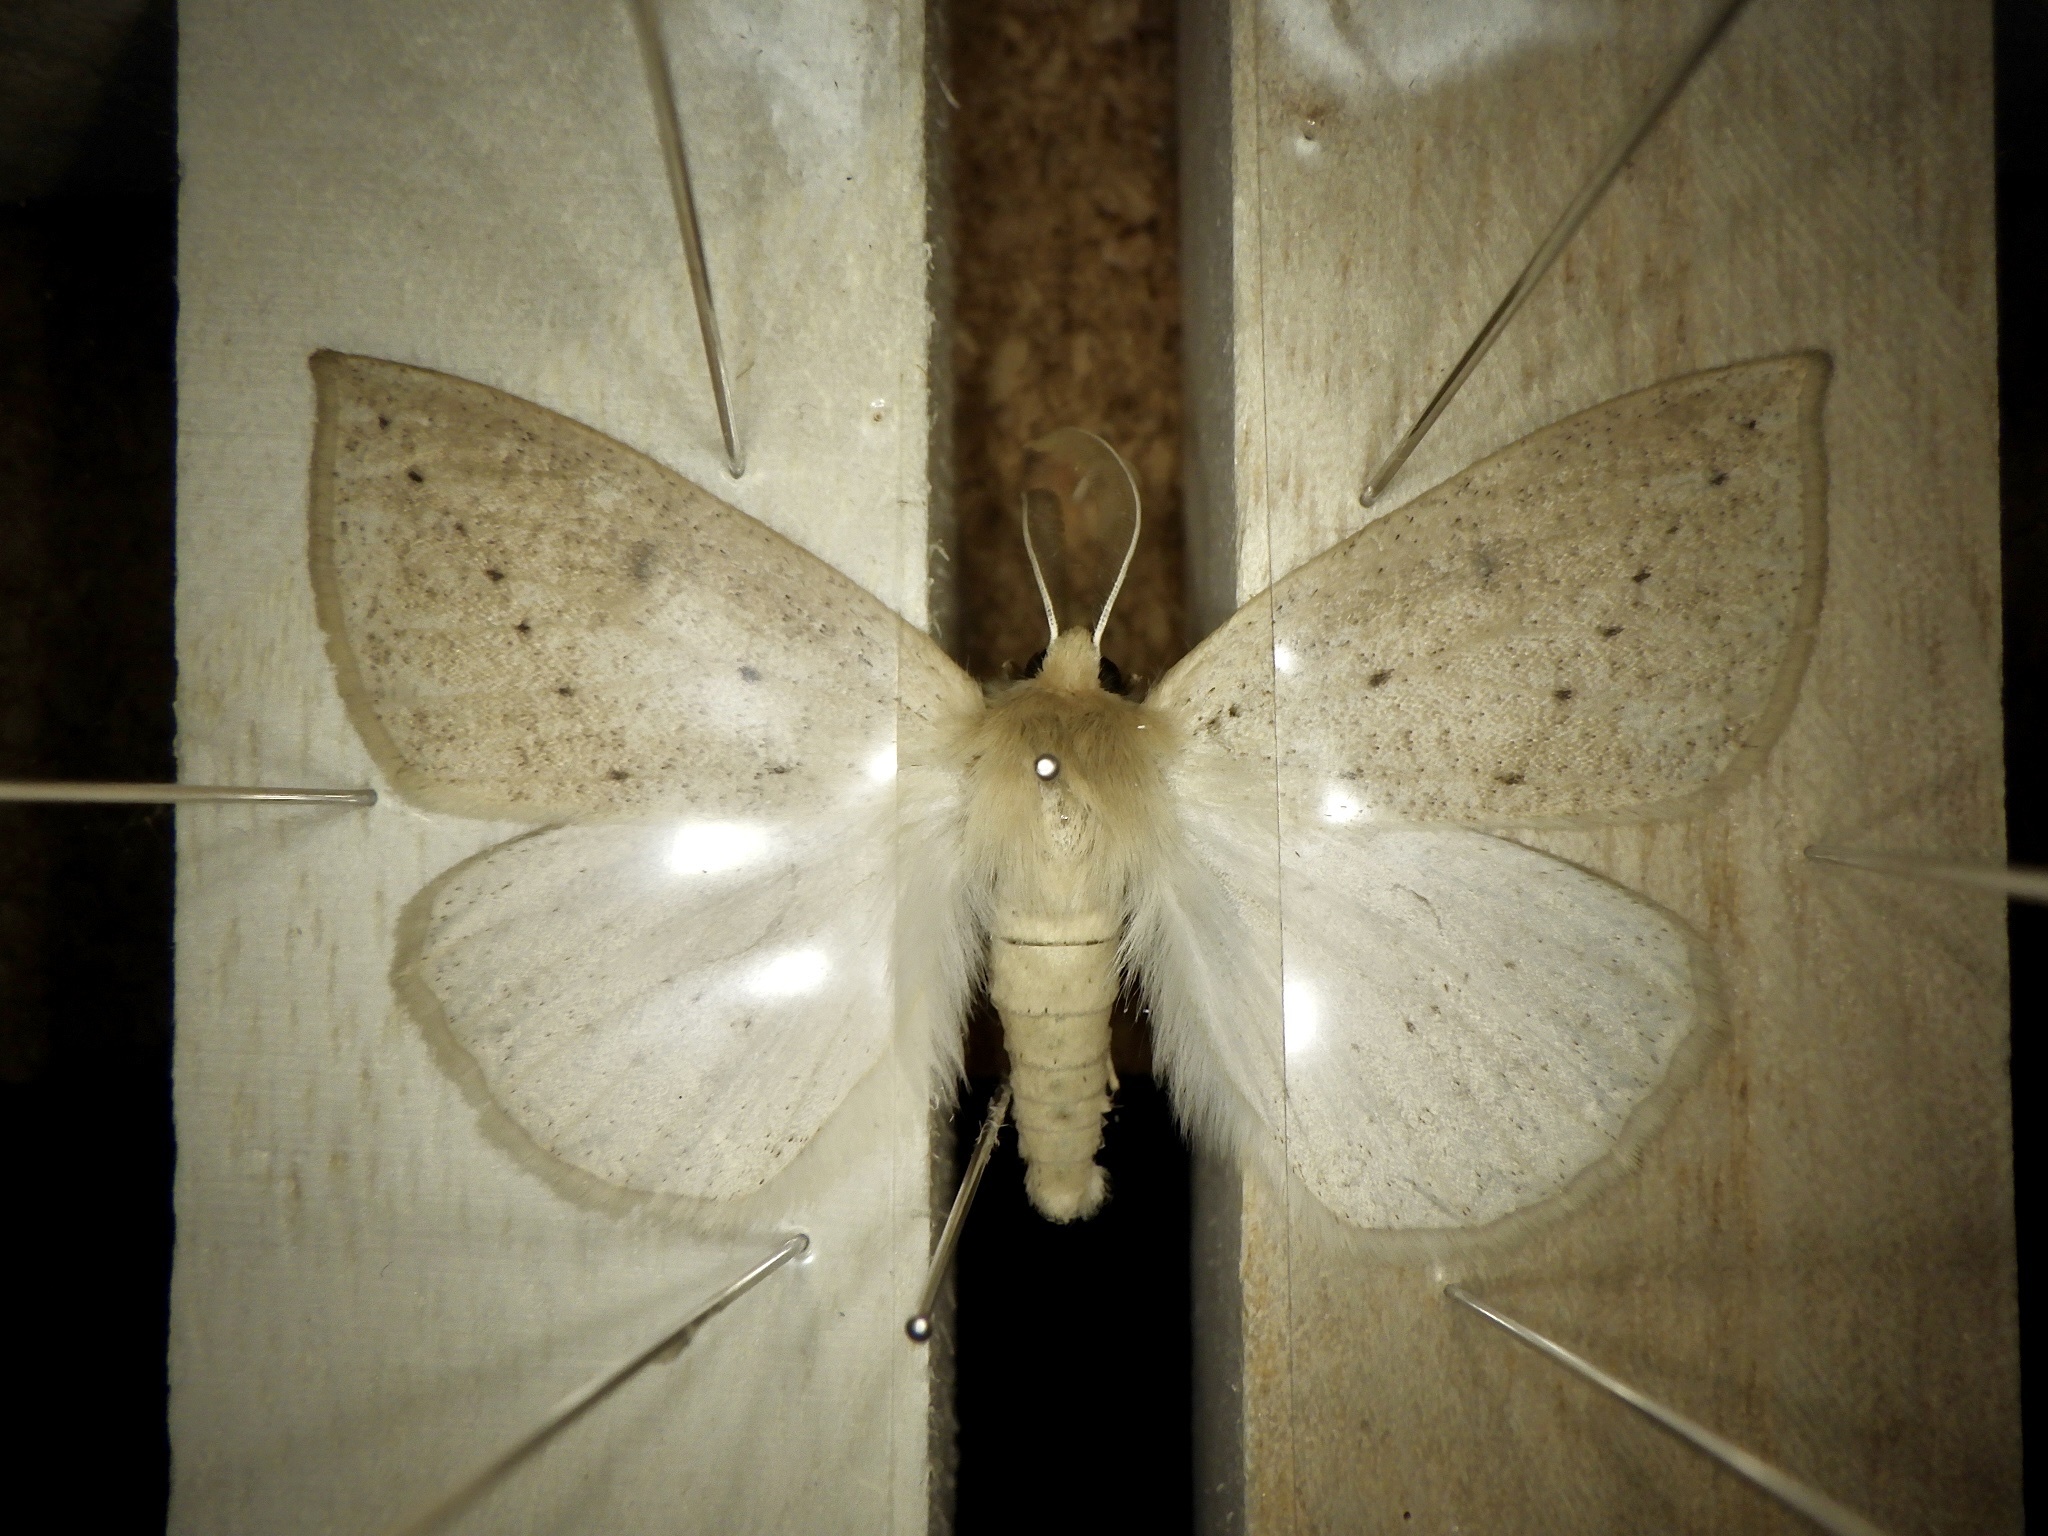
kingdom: Animalia
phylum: Arthropoda
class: Insecta
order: Lepidoptera
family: Geometridae
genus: Descoreba
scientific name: Descoreba simplex
